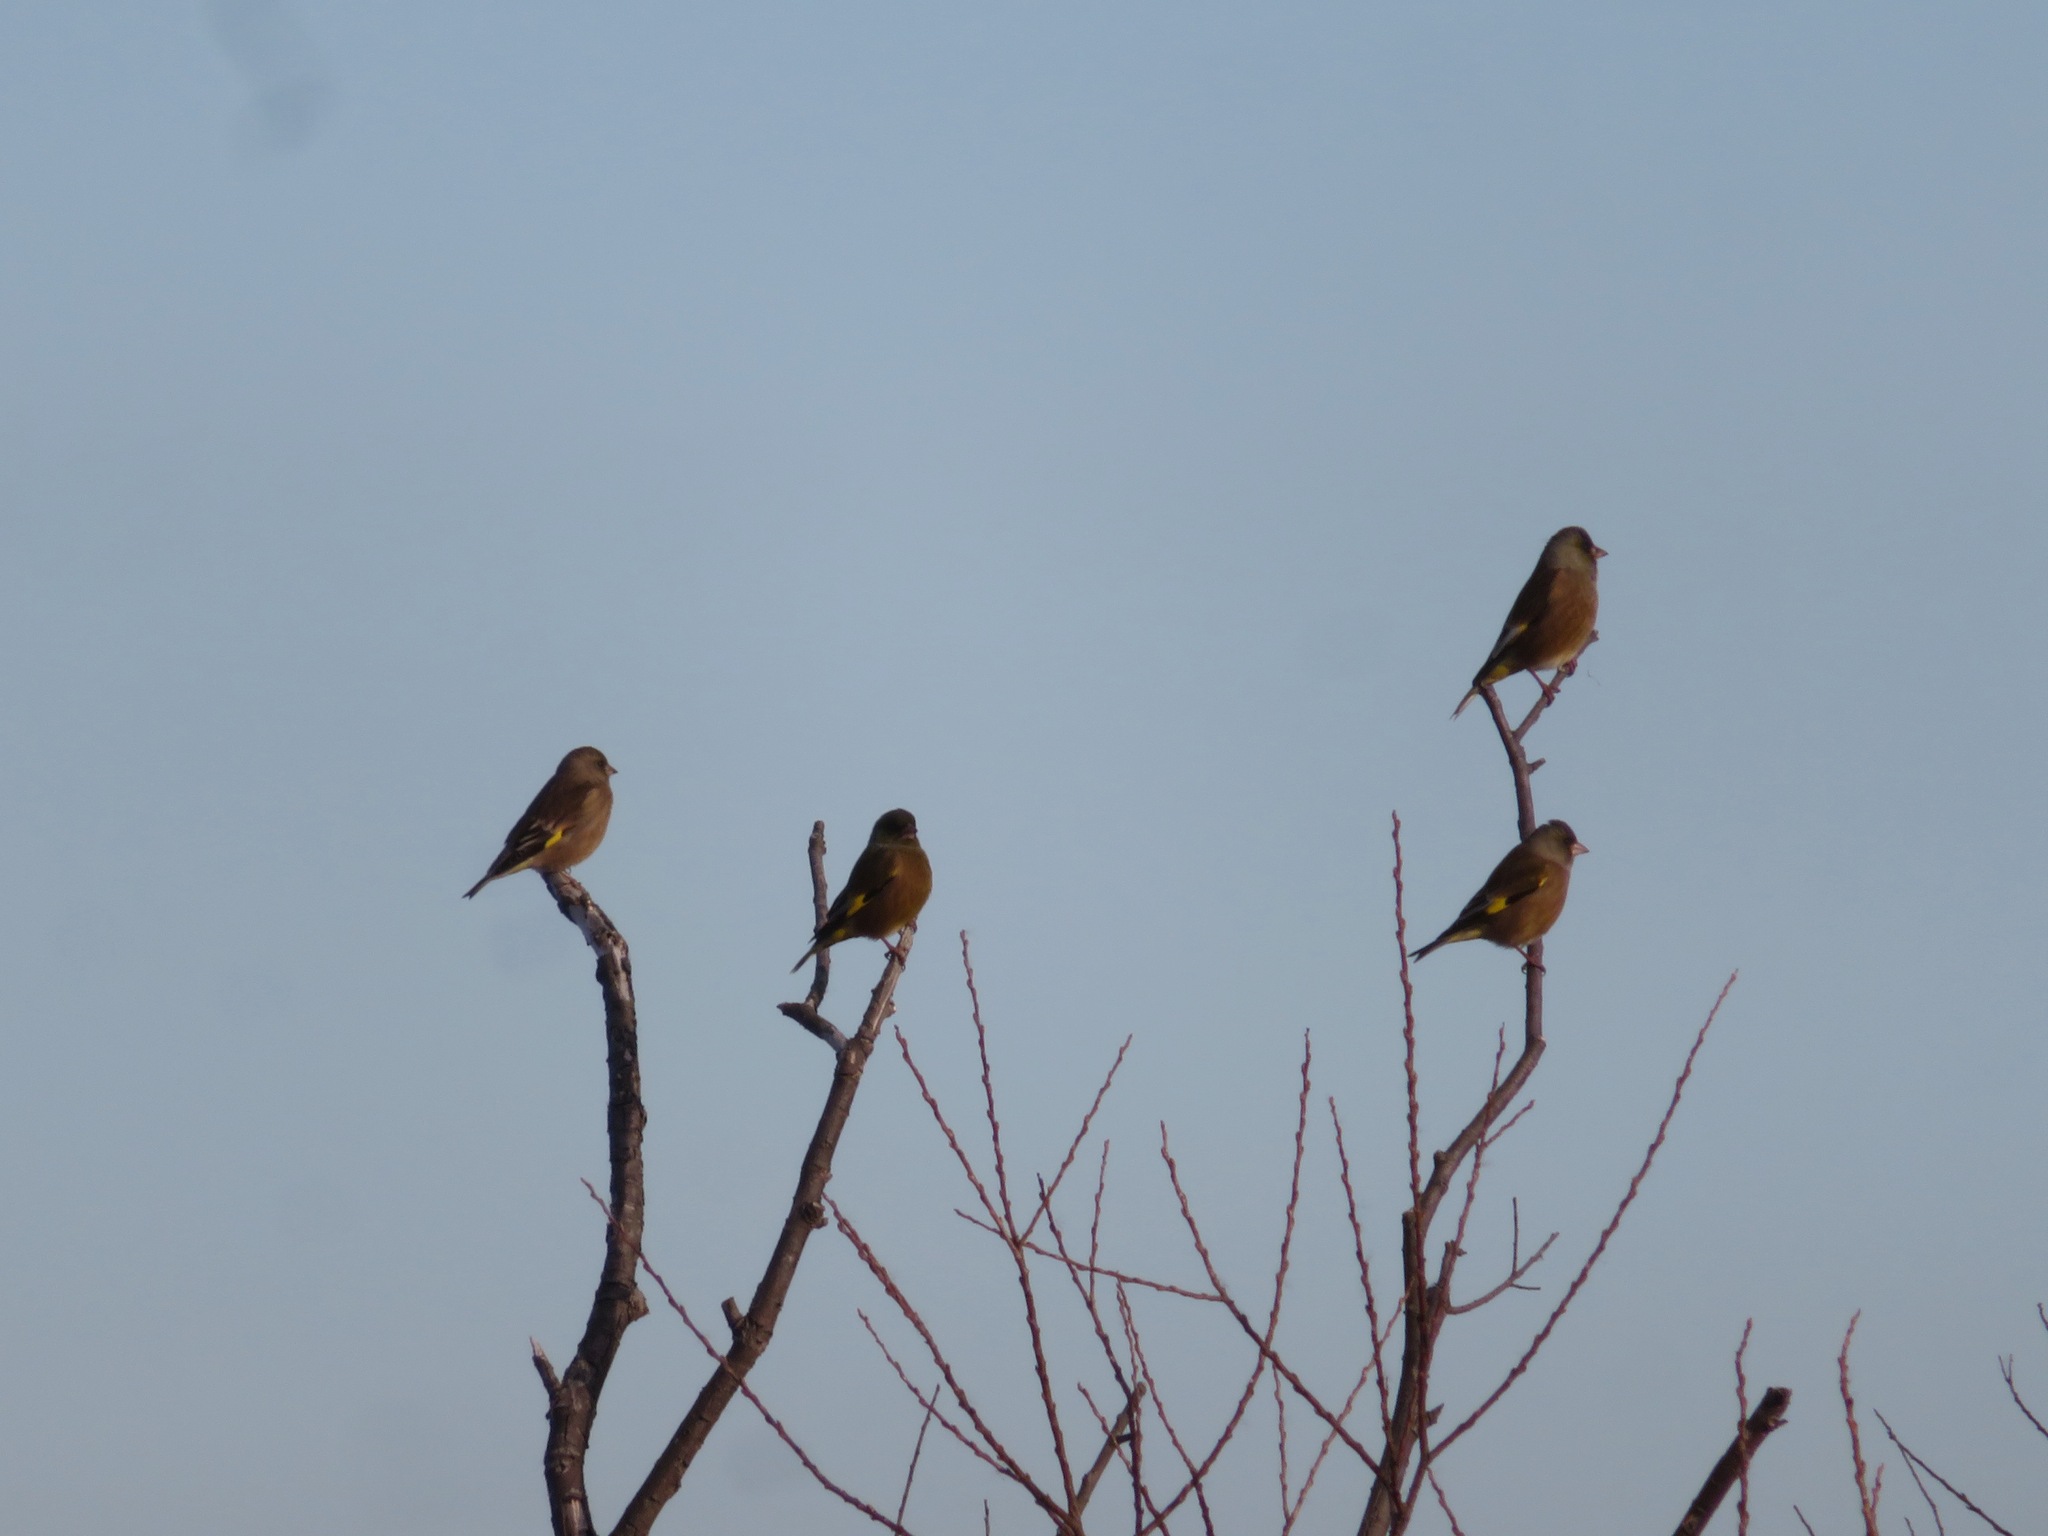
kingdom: Plantae
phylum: Tracheophyta
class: Liliopsida
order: Poales
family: Poaceae
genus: Chloris
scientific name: Chloris sinica
